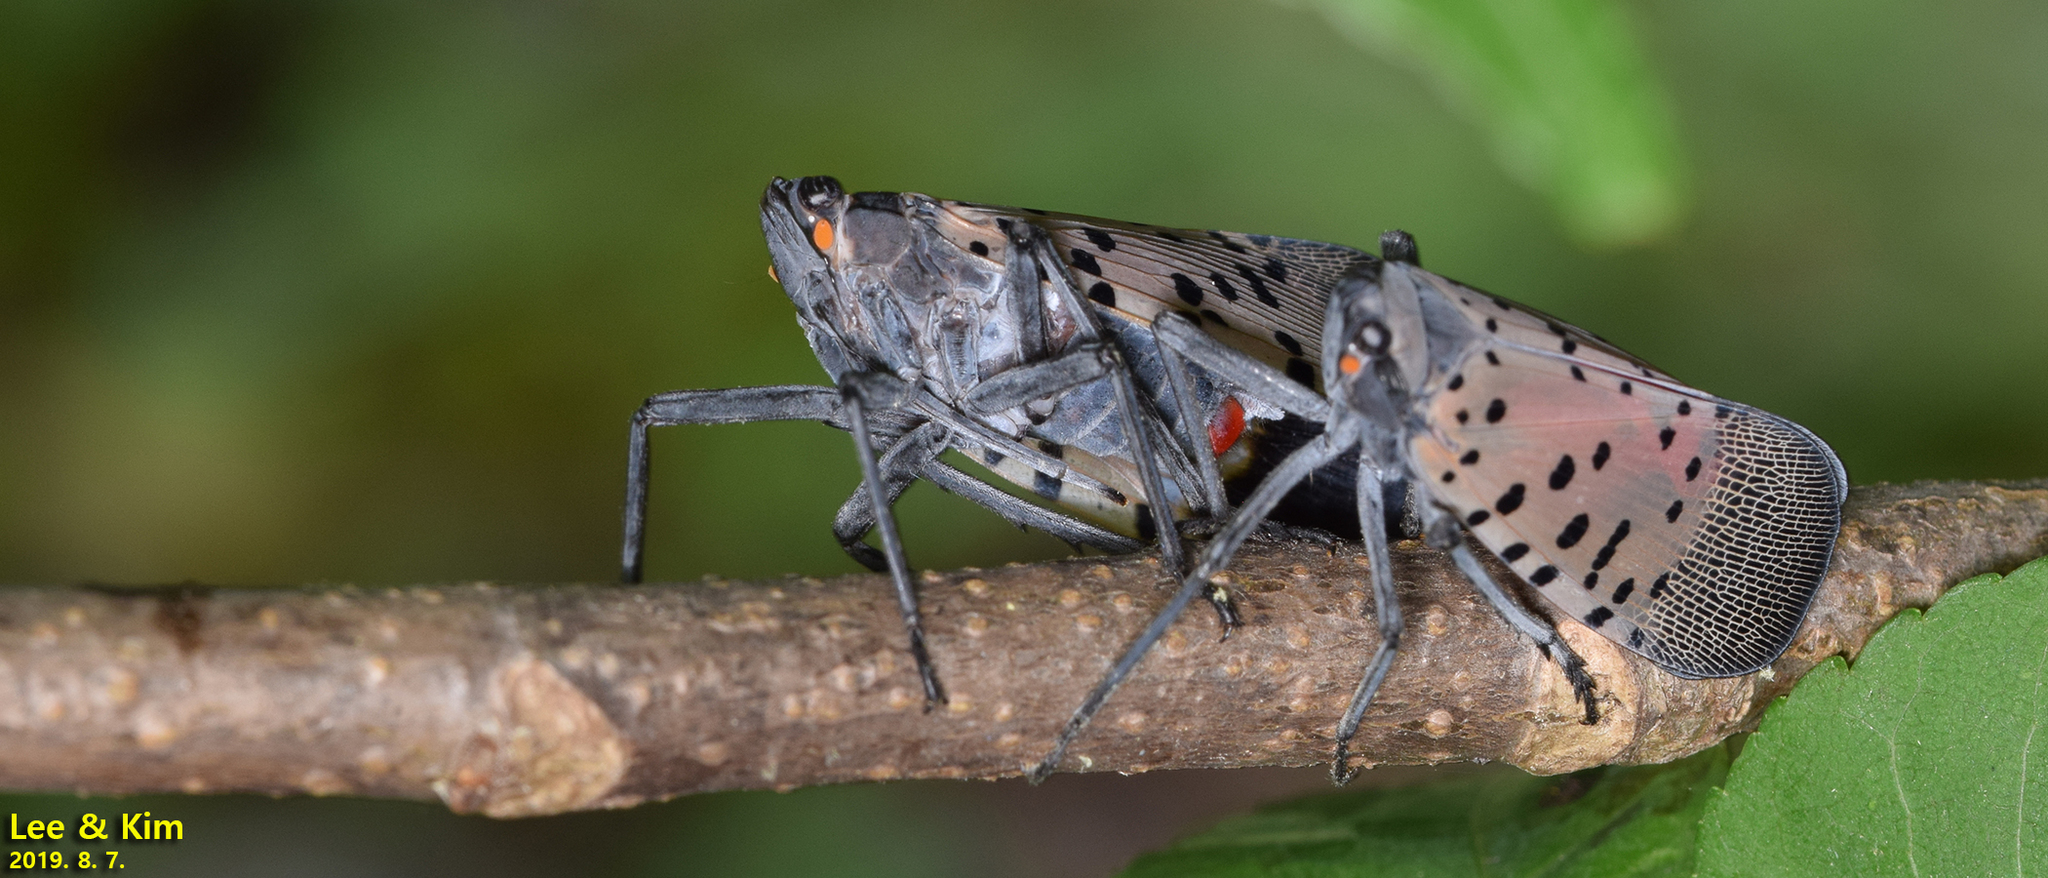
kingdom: Animalia
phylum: Arthropoda
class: Insecta
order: Hemiptera
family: Fulgoridae
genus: Lycorma
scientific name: Lycorma delicatula
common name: Spotted lanternfly
